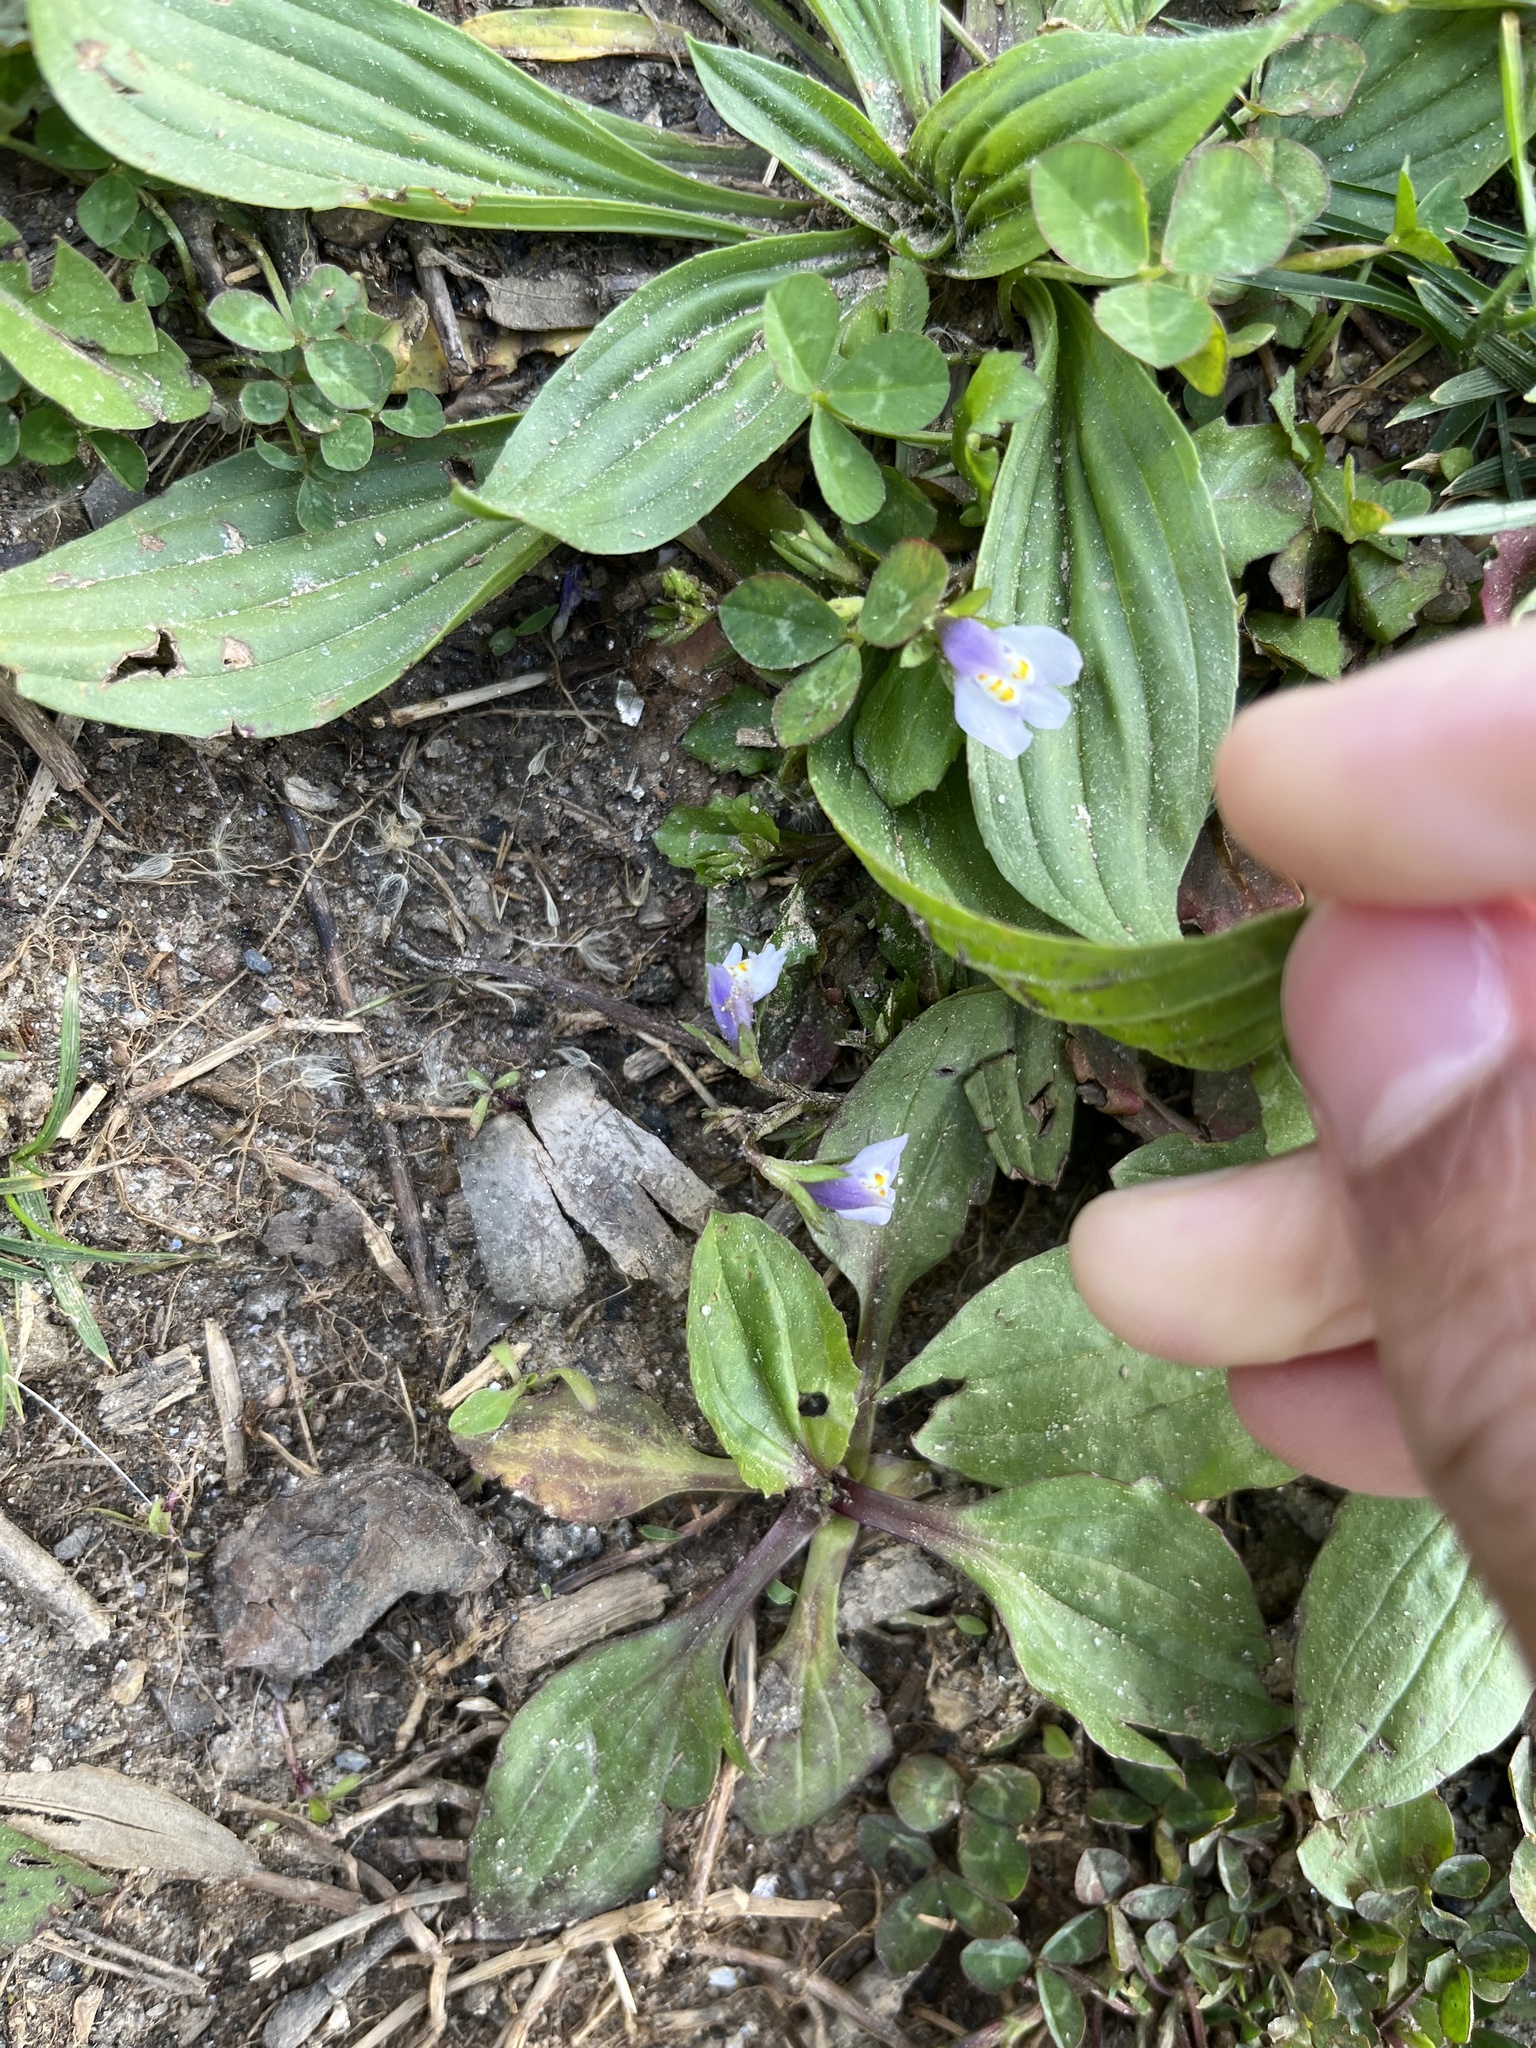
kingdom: Plantae
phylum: Tracheophyta
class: Magnoliopsida
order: Lamiales
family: Mazaceae
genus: Mazus
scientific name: Mazus pumilus
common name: Japanese mazus
